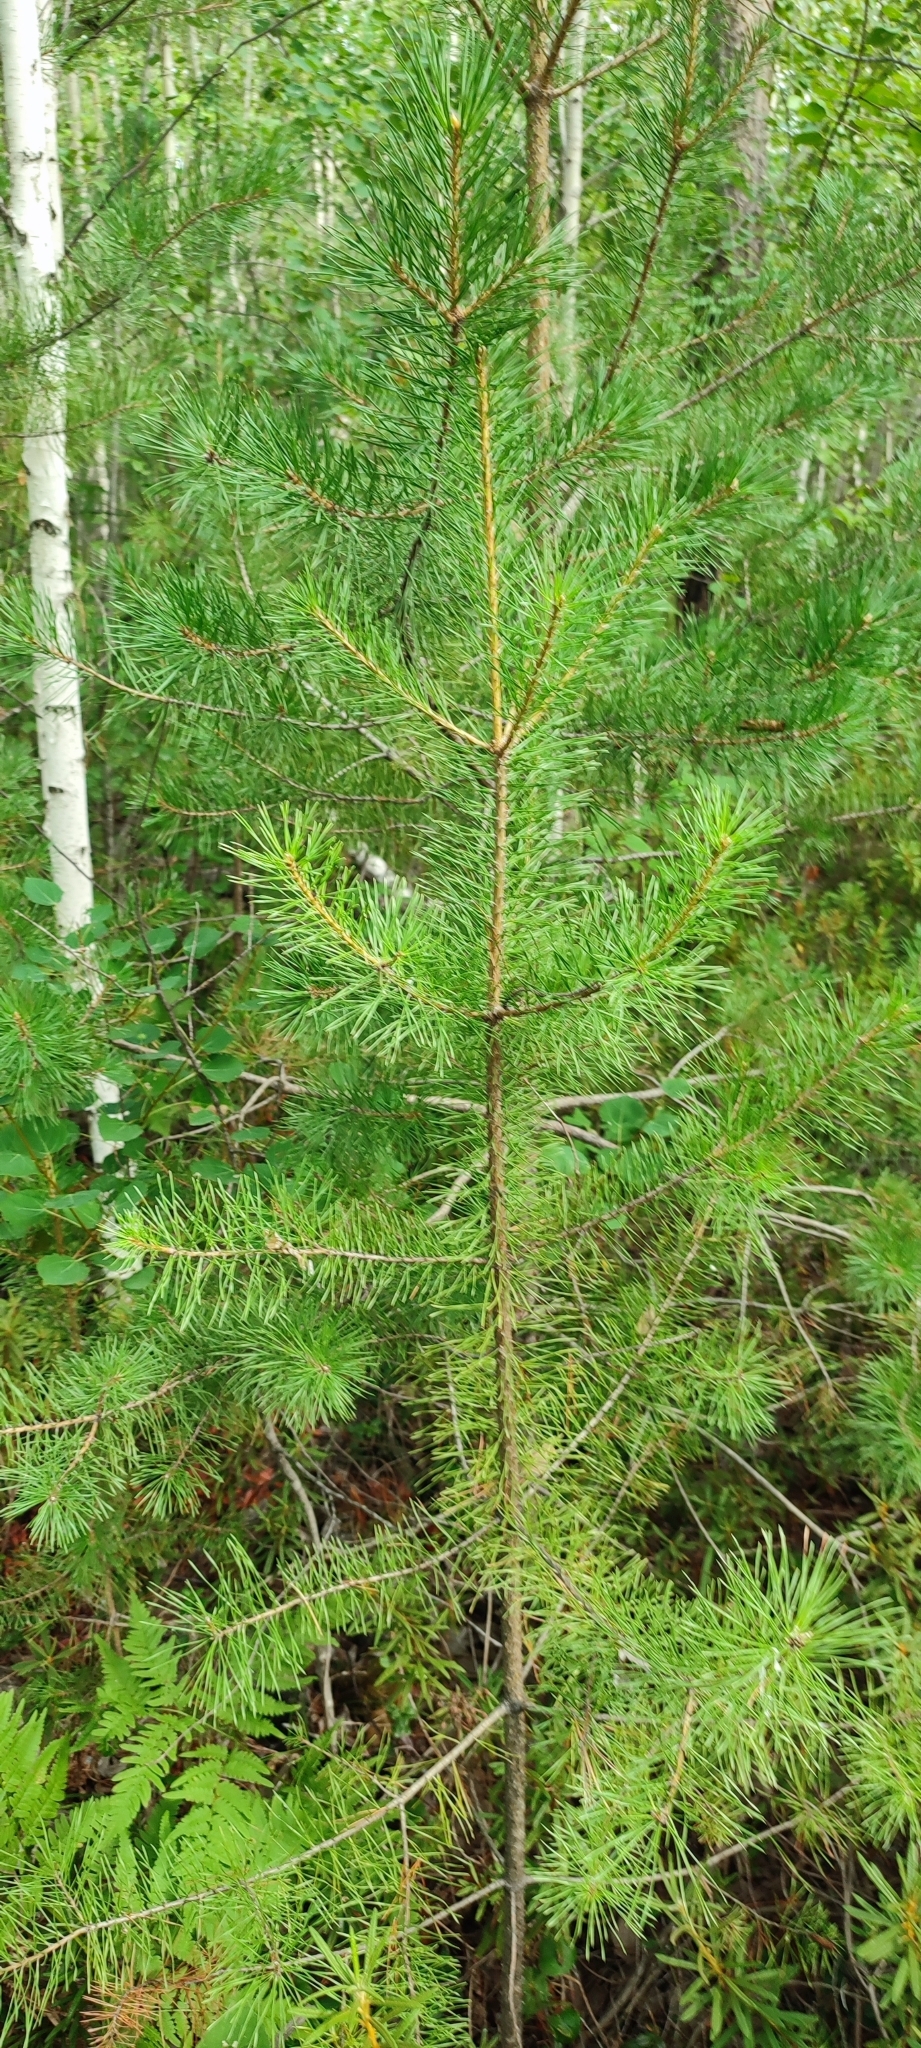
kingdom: Plantae
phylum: Tracheophyta
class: Pinopsida
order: Pinales
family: Pinaceae
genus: Pinus
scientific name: Pinus sylvestris
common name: Scots pine
